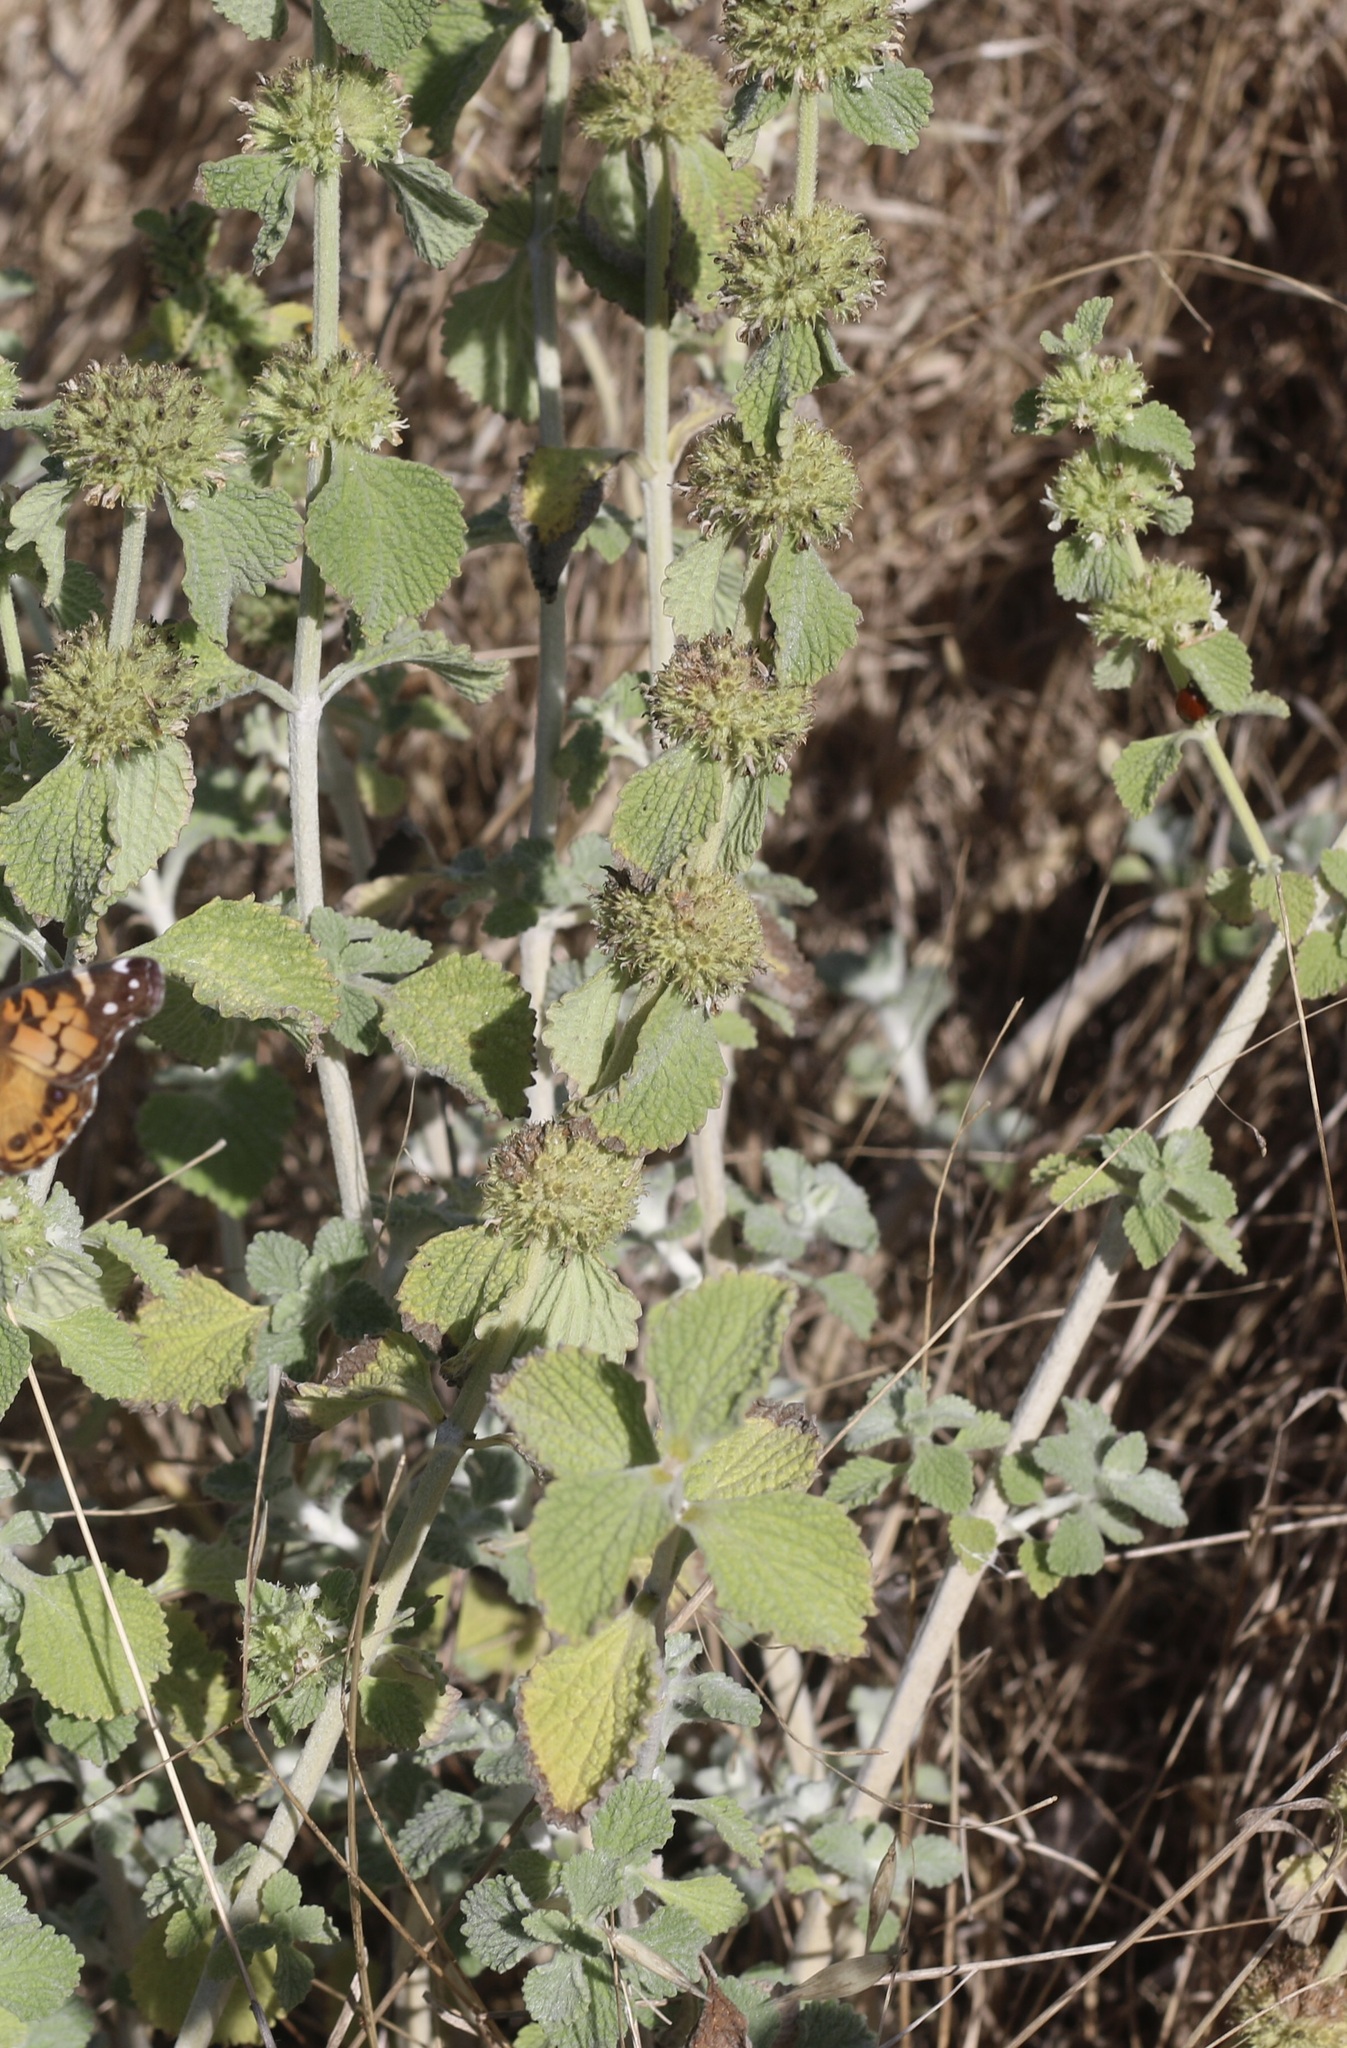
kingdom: Plantae
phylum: Tracheophyta
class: Magnoliopsida
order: Lamiales
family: Lamiaceae
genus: Marrubium
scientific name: Marrubium vulgare
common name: Horehound
